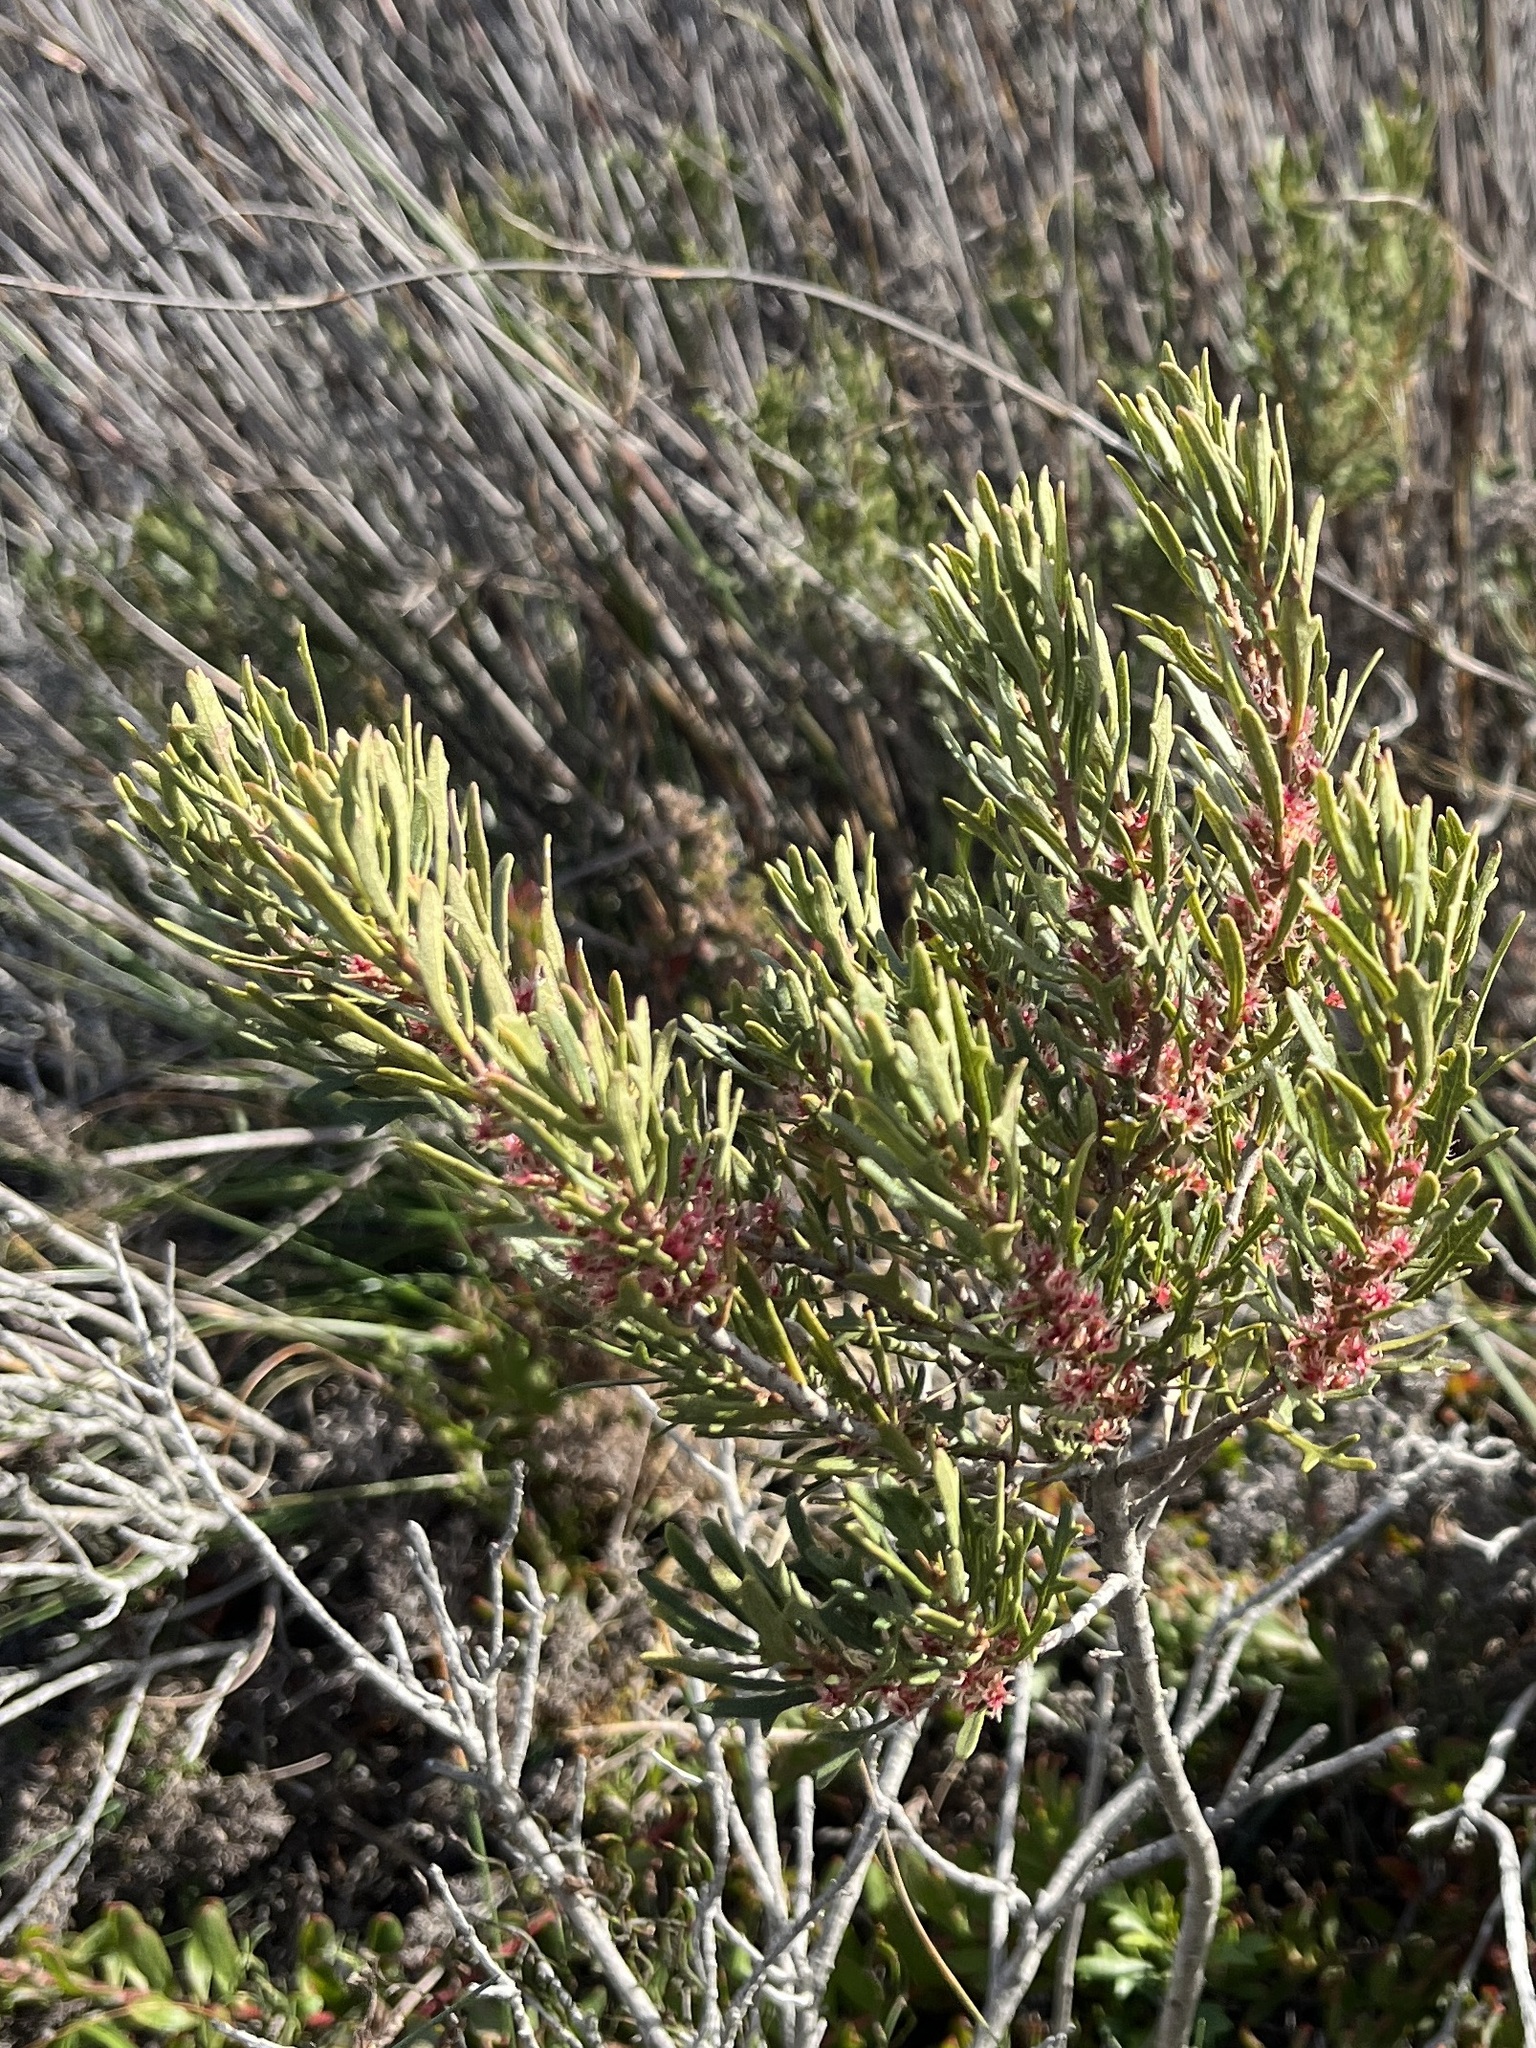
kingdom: Plantae
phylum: Tracheophyta
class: Magnoliopsida
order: Fagales
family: Myricaceae
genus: Morella
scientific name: Morella quercifolia
